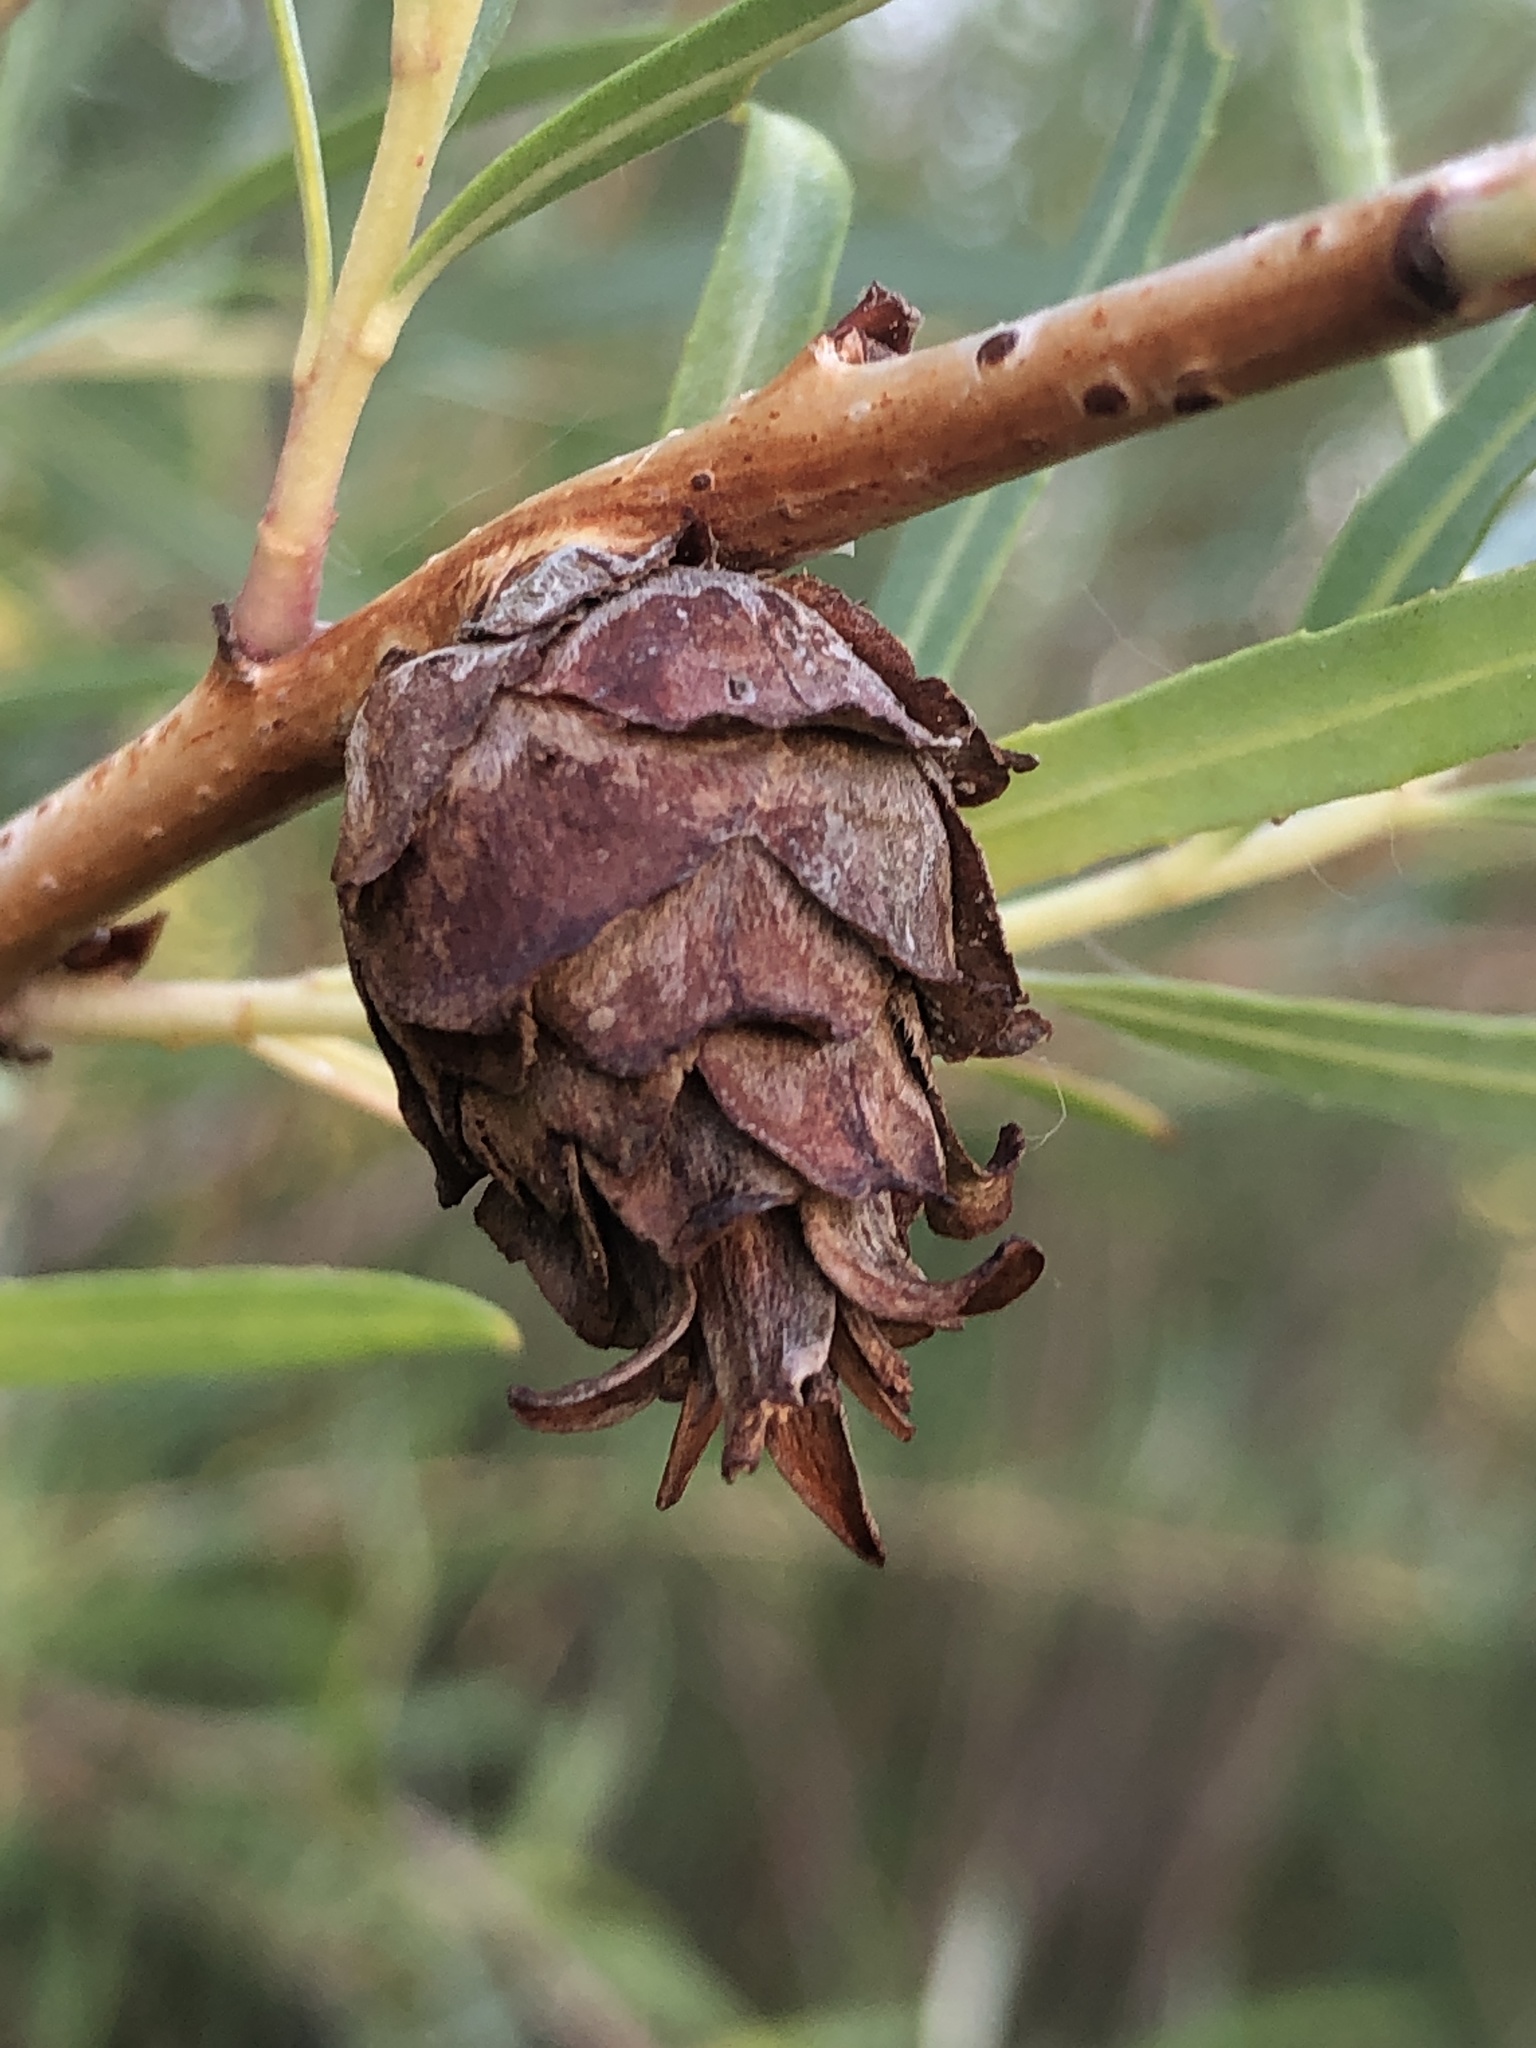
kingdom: Animalia
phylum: Arthropoda
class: Insecta
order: Diptera
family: Cecidomyiidae
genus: Rabdophaga
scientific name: Rabdophaga strobiloides
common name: Willow pinecone gall midge
